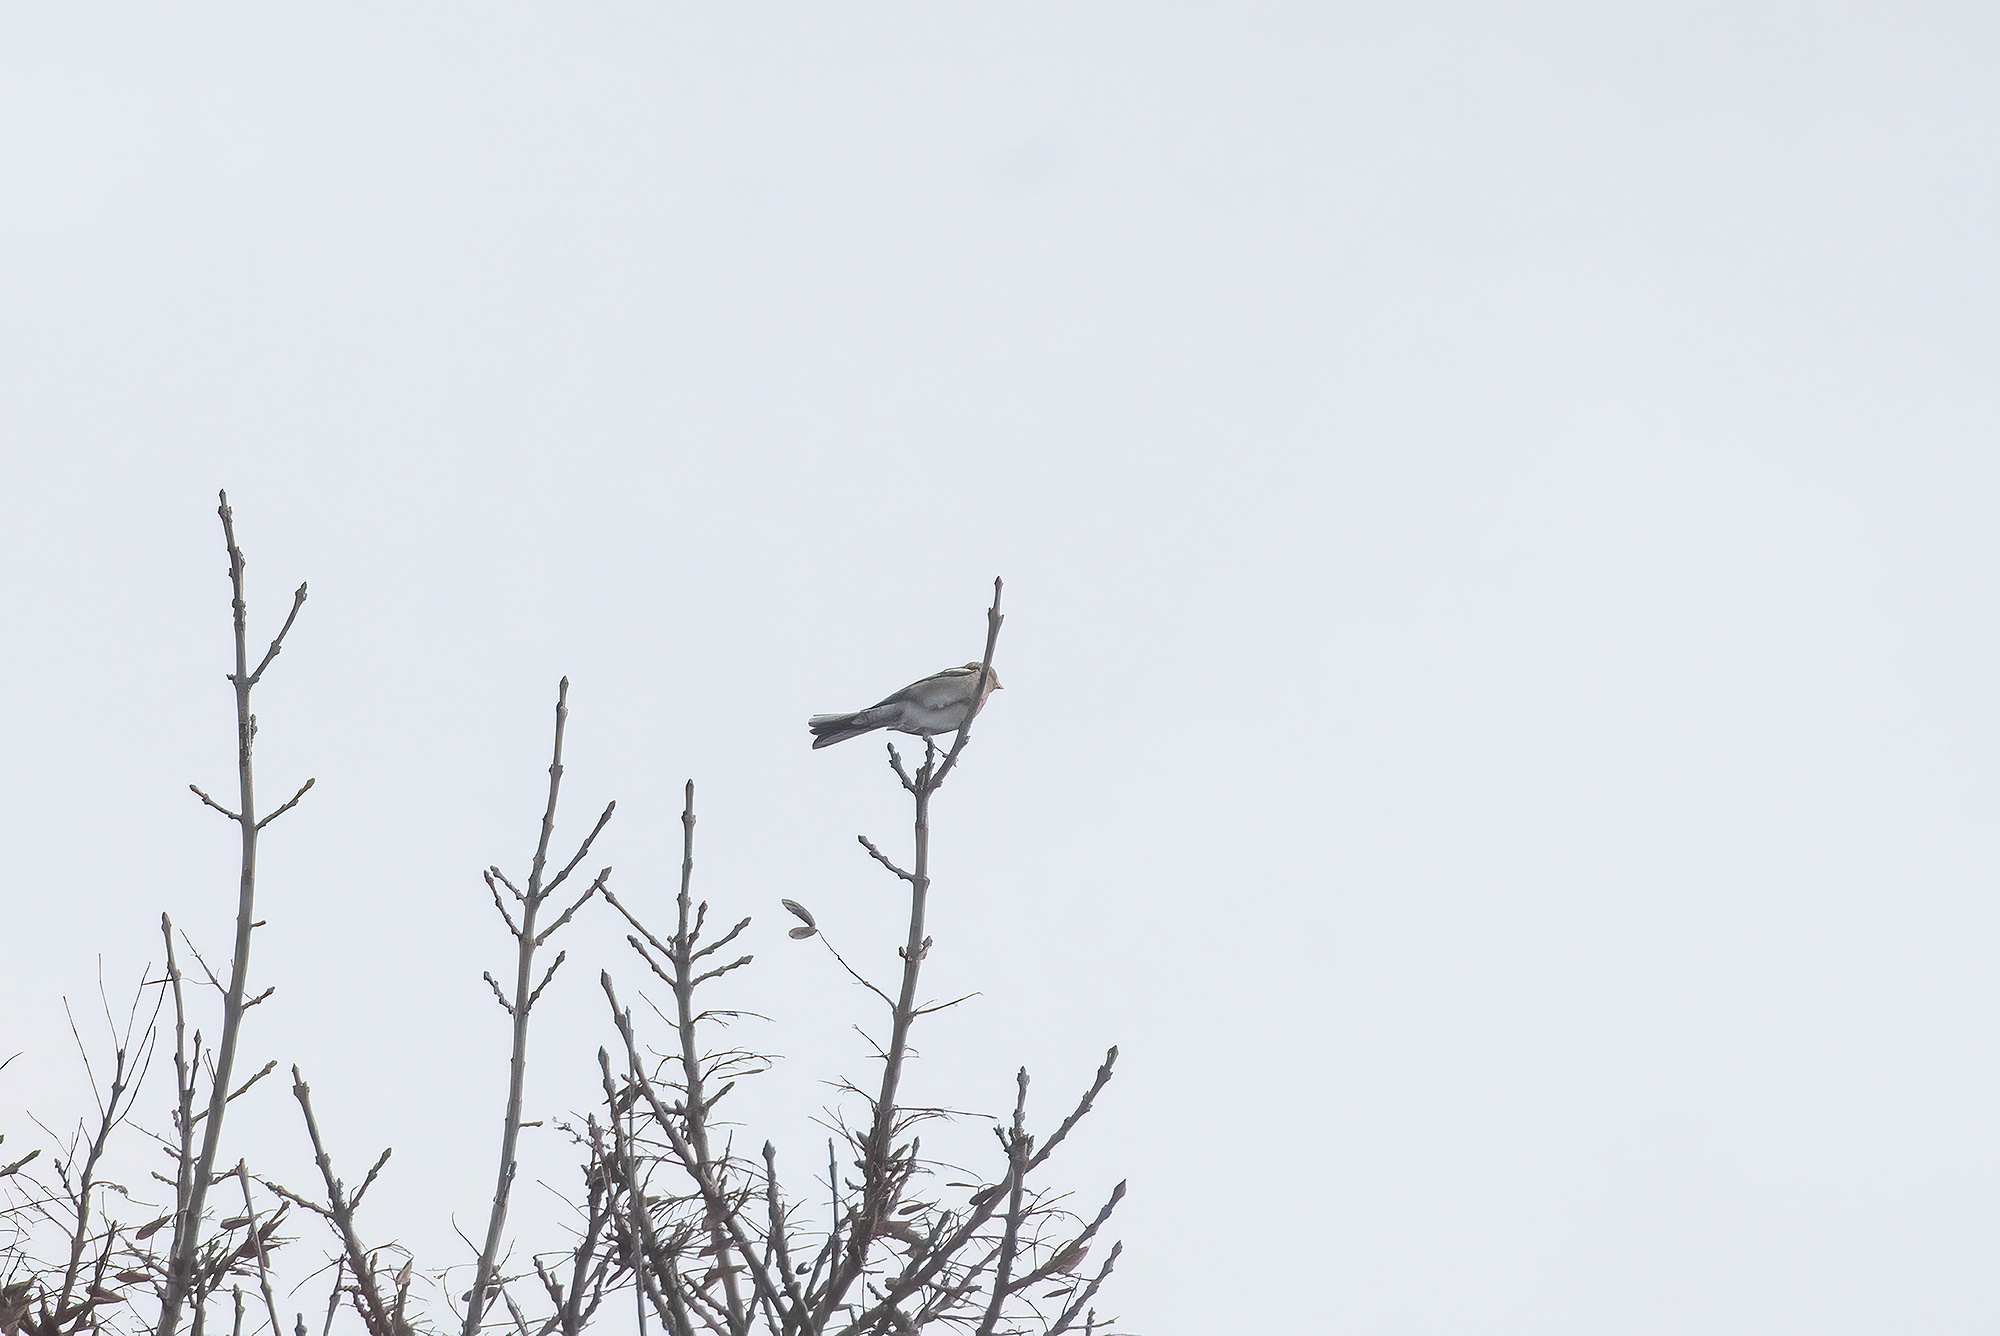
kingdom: Animalia
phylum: Chordata
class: Aves
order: Passeriformes
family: Fringillidae
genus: Fringilla
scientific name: Fringilla coelebs
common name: Common chaffinch
